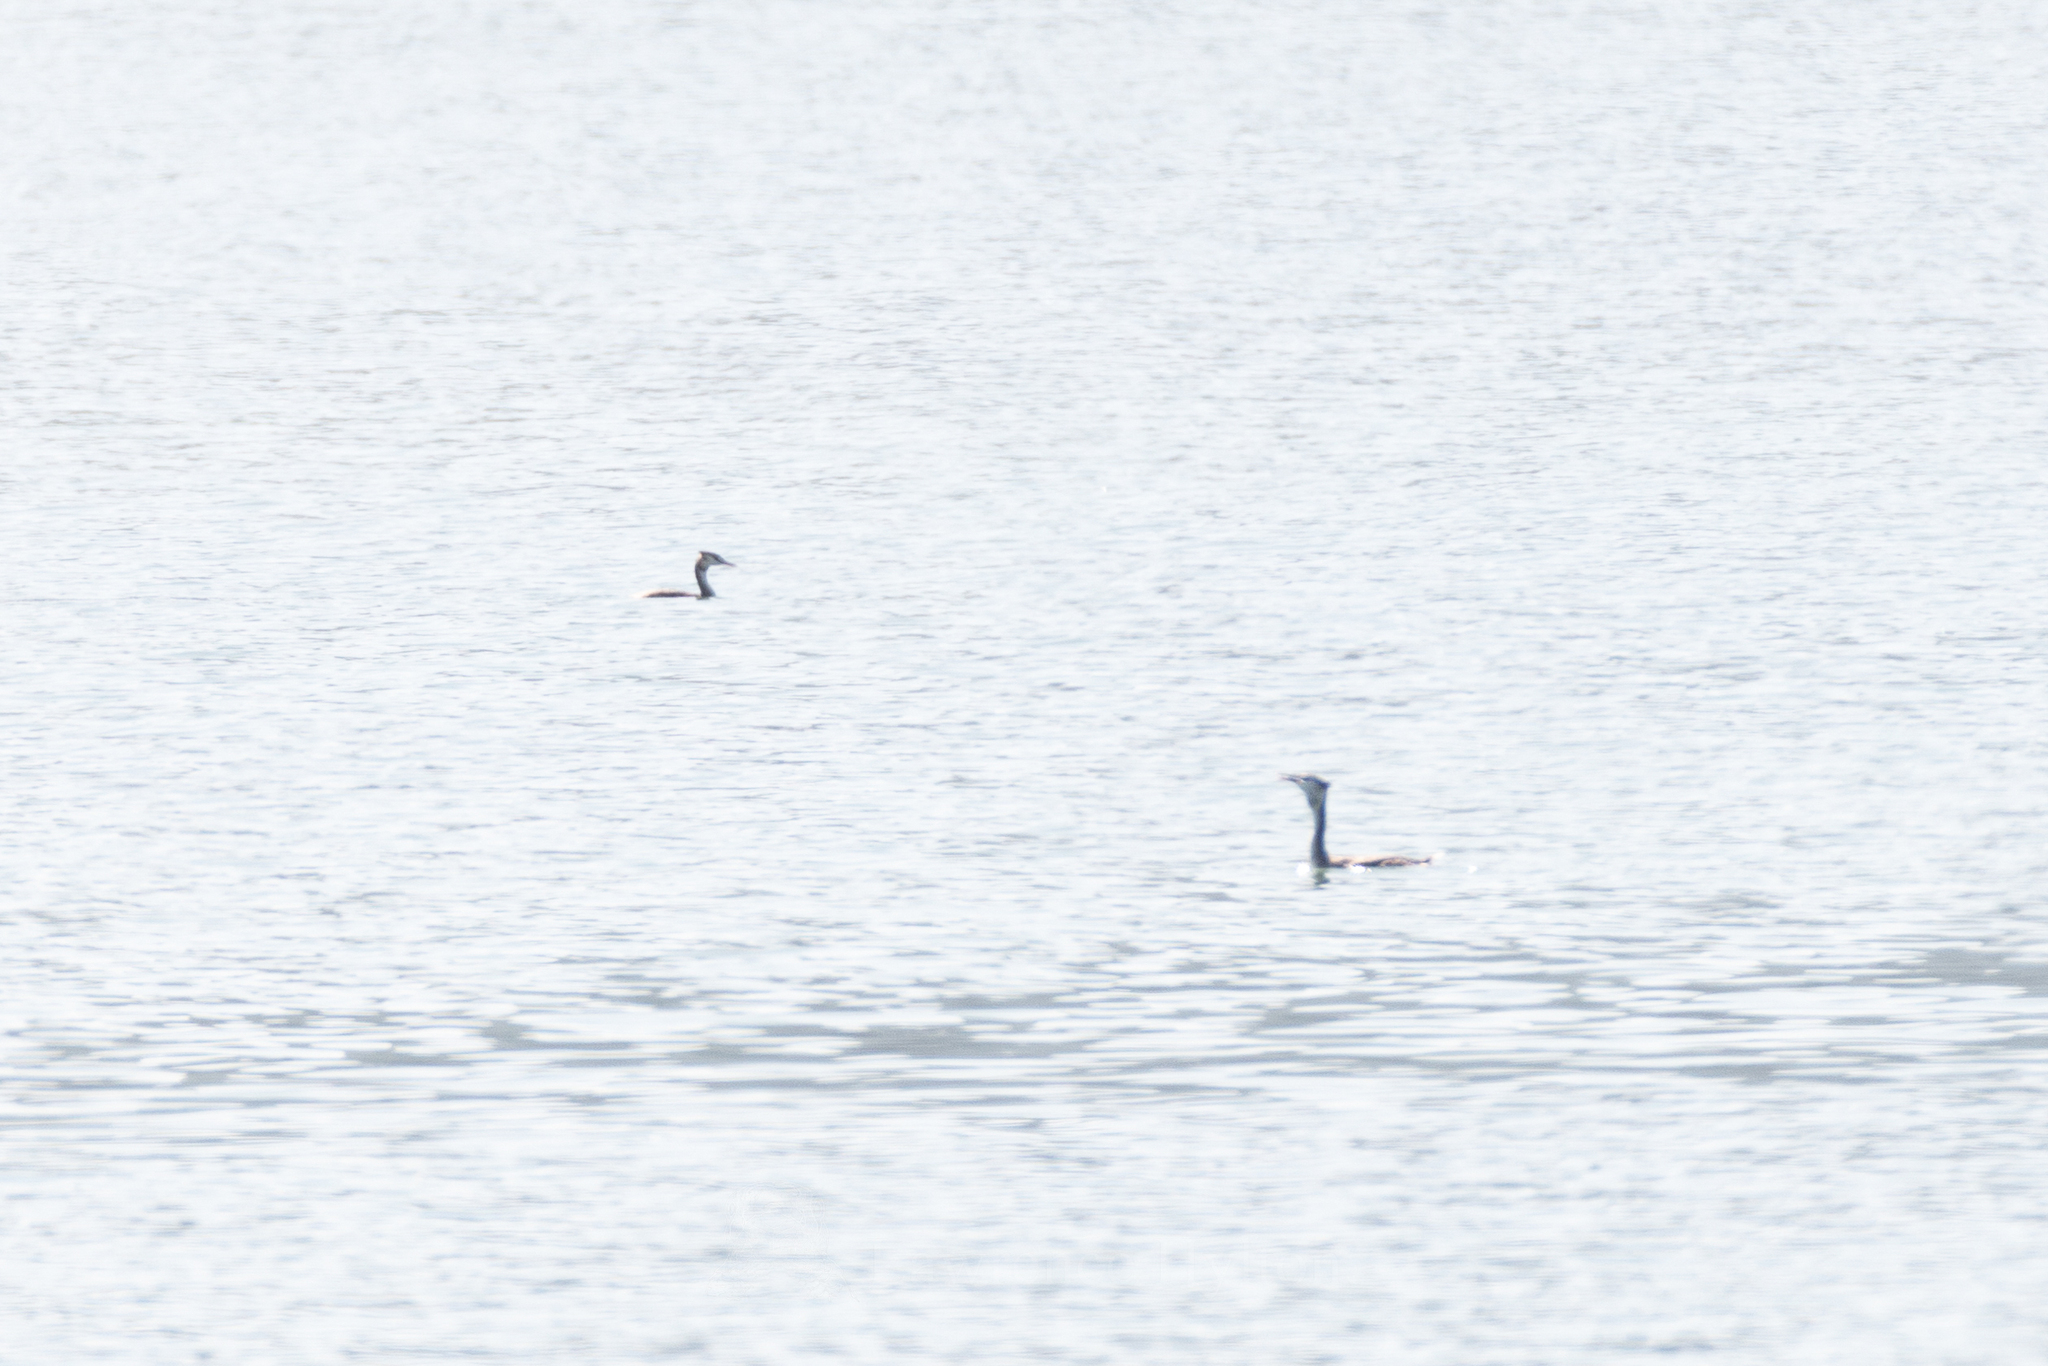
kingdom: Animalia
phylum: Chordata
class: Aves
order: Podicipediformes
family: Podicipedidae
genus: Podiceps
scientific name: Podiceps cristatus
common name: Great crested grebe
